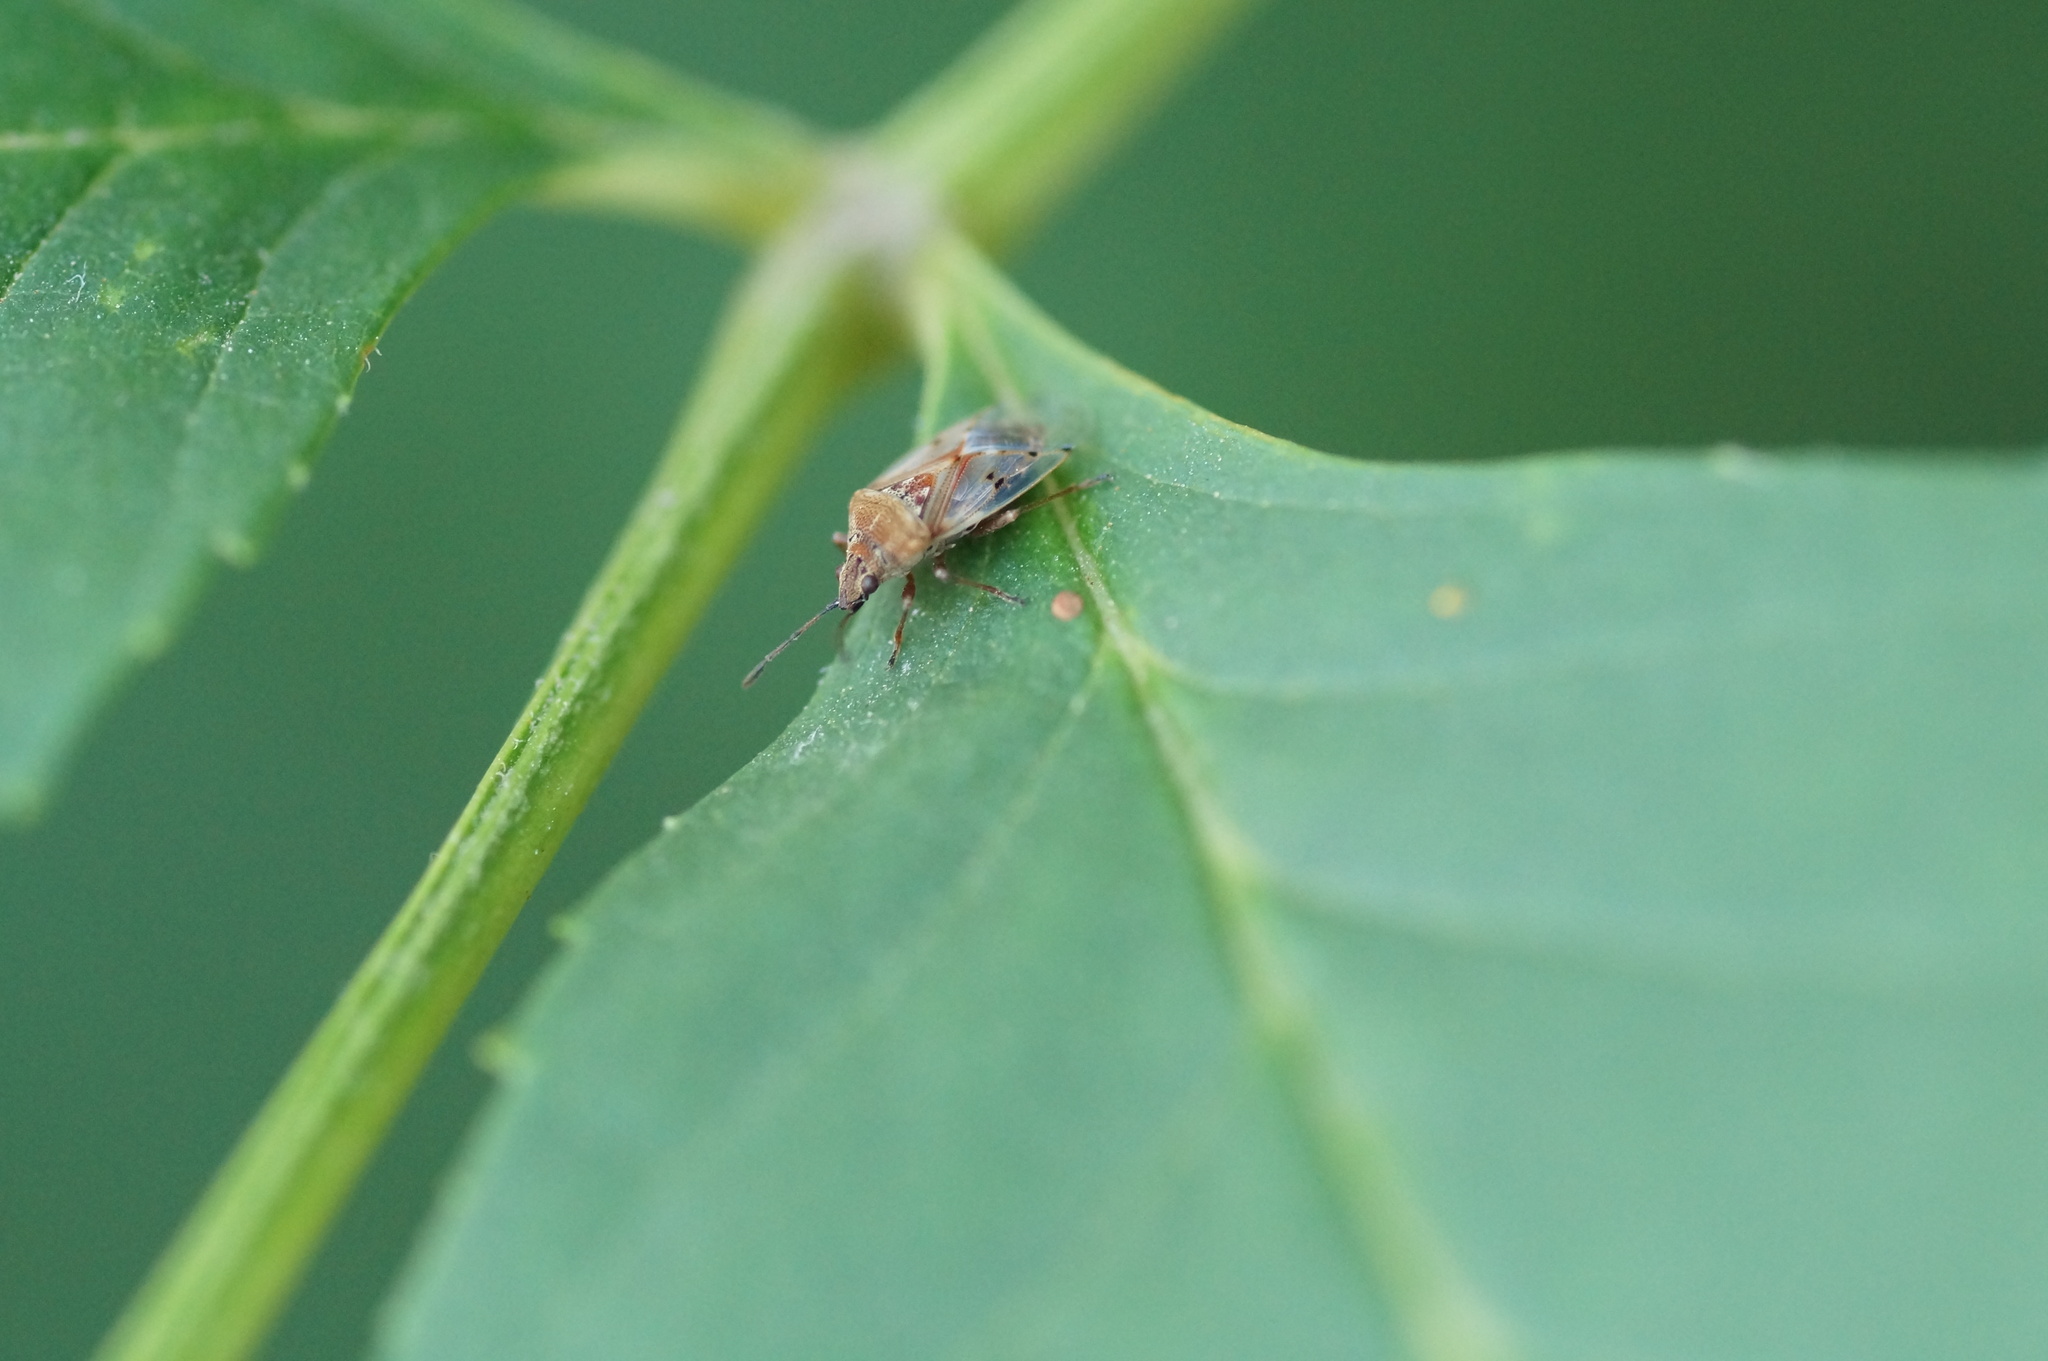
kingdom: Animalia
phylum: Arthropoda
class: Insecta
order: Hemiptera
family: Lygaeidae
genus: Kleidocerys
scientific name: Kleidocerys resedae
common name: Birch catkin bug
